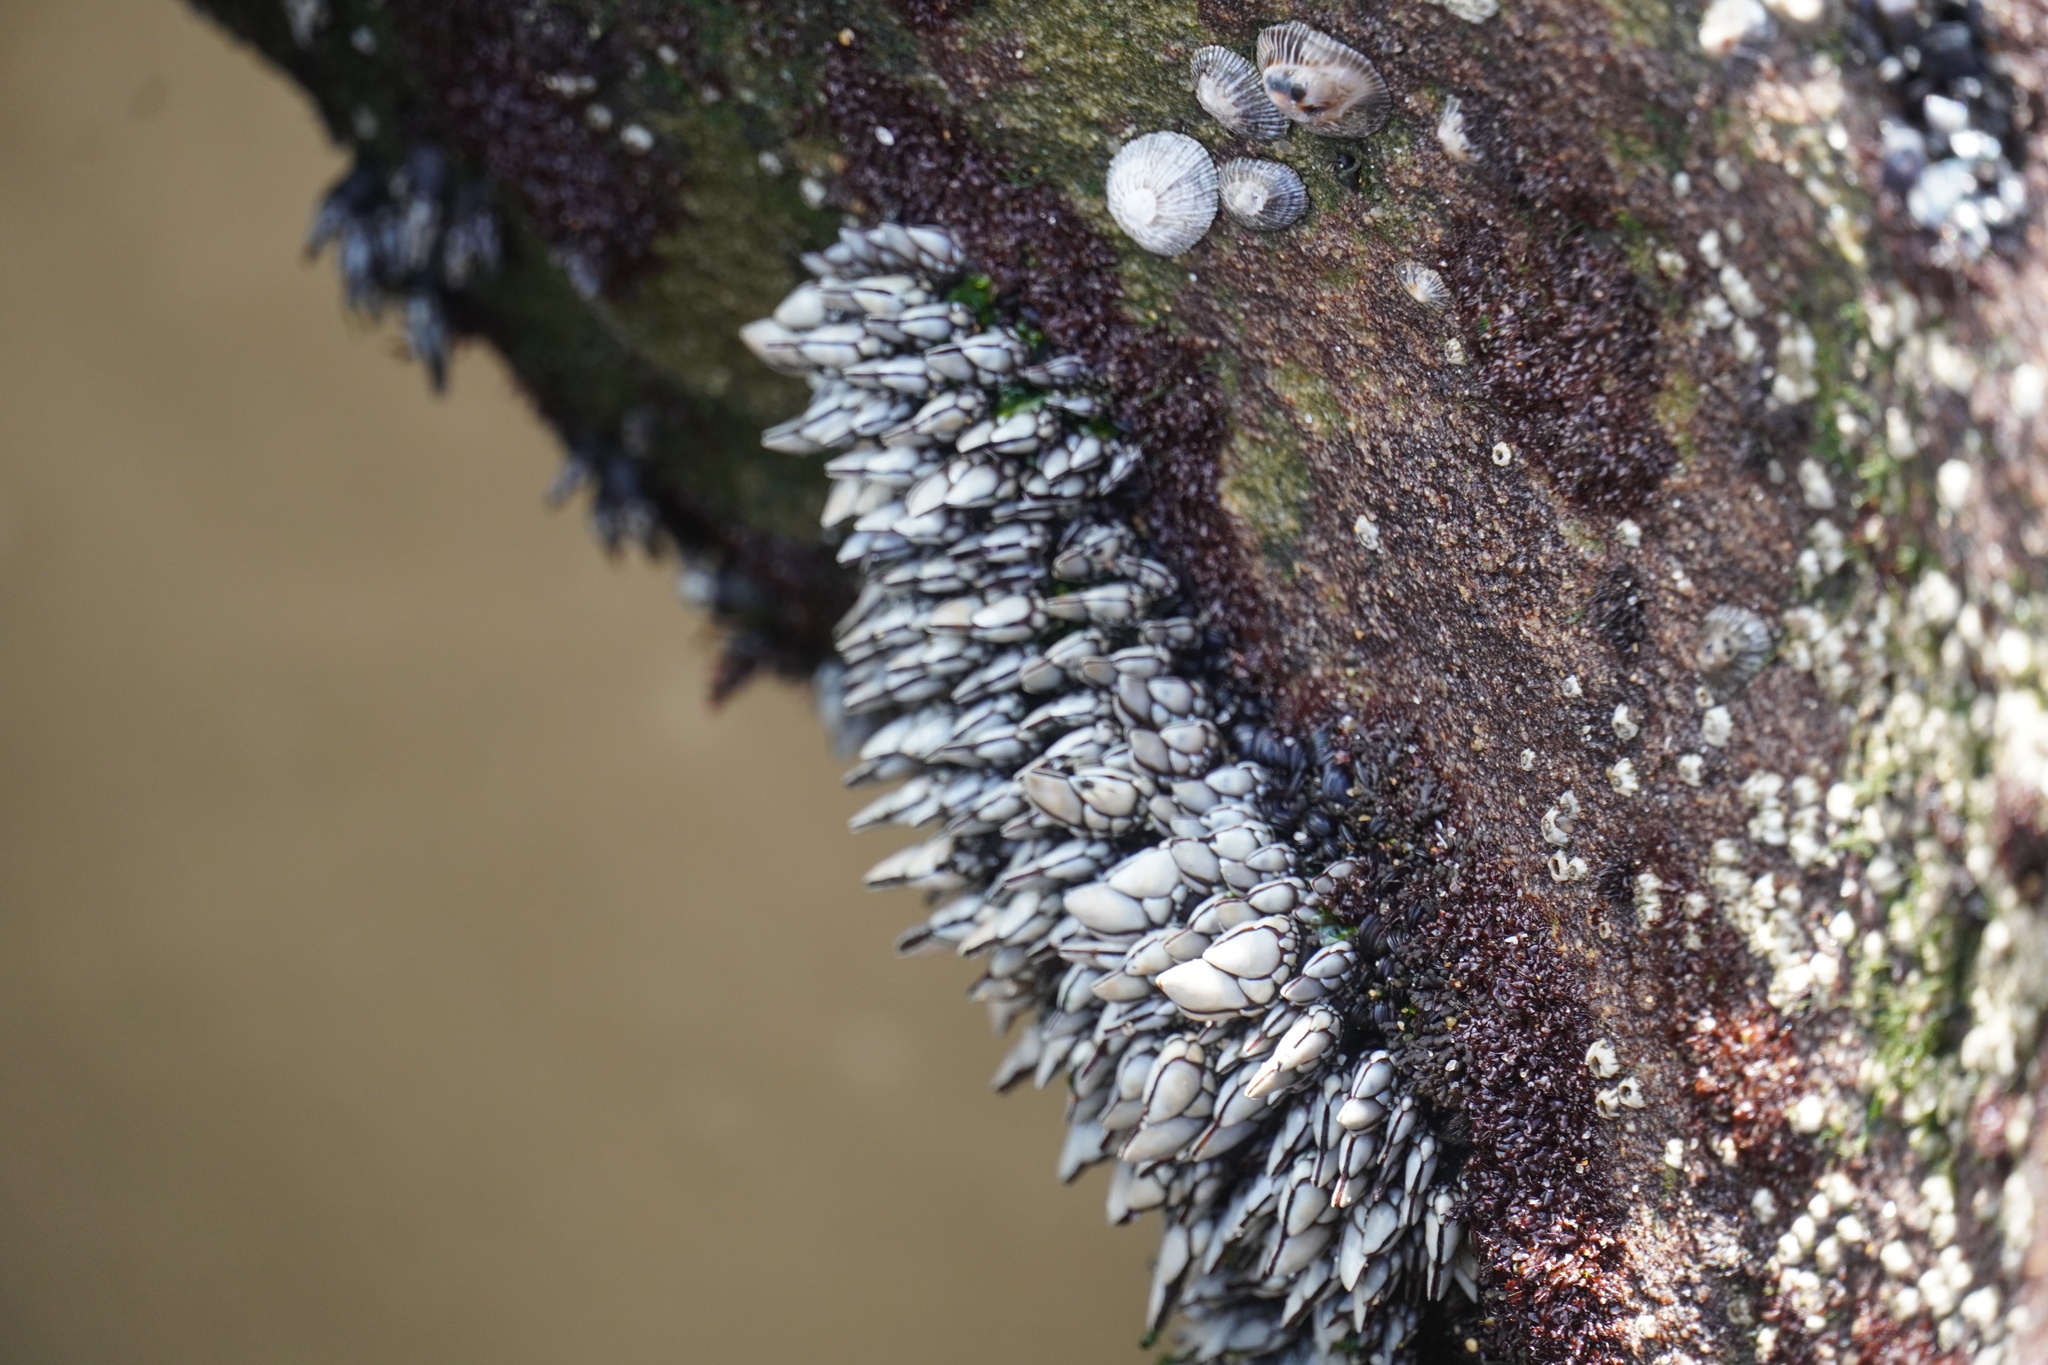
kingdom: Animalia
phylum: Arthropoda
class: Maxillopoda
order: Pedunculata
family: Pollicipedidae
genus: Pollicipes
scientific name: Pollicipes pollicipes
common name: Gooseneck barnacle
